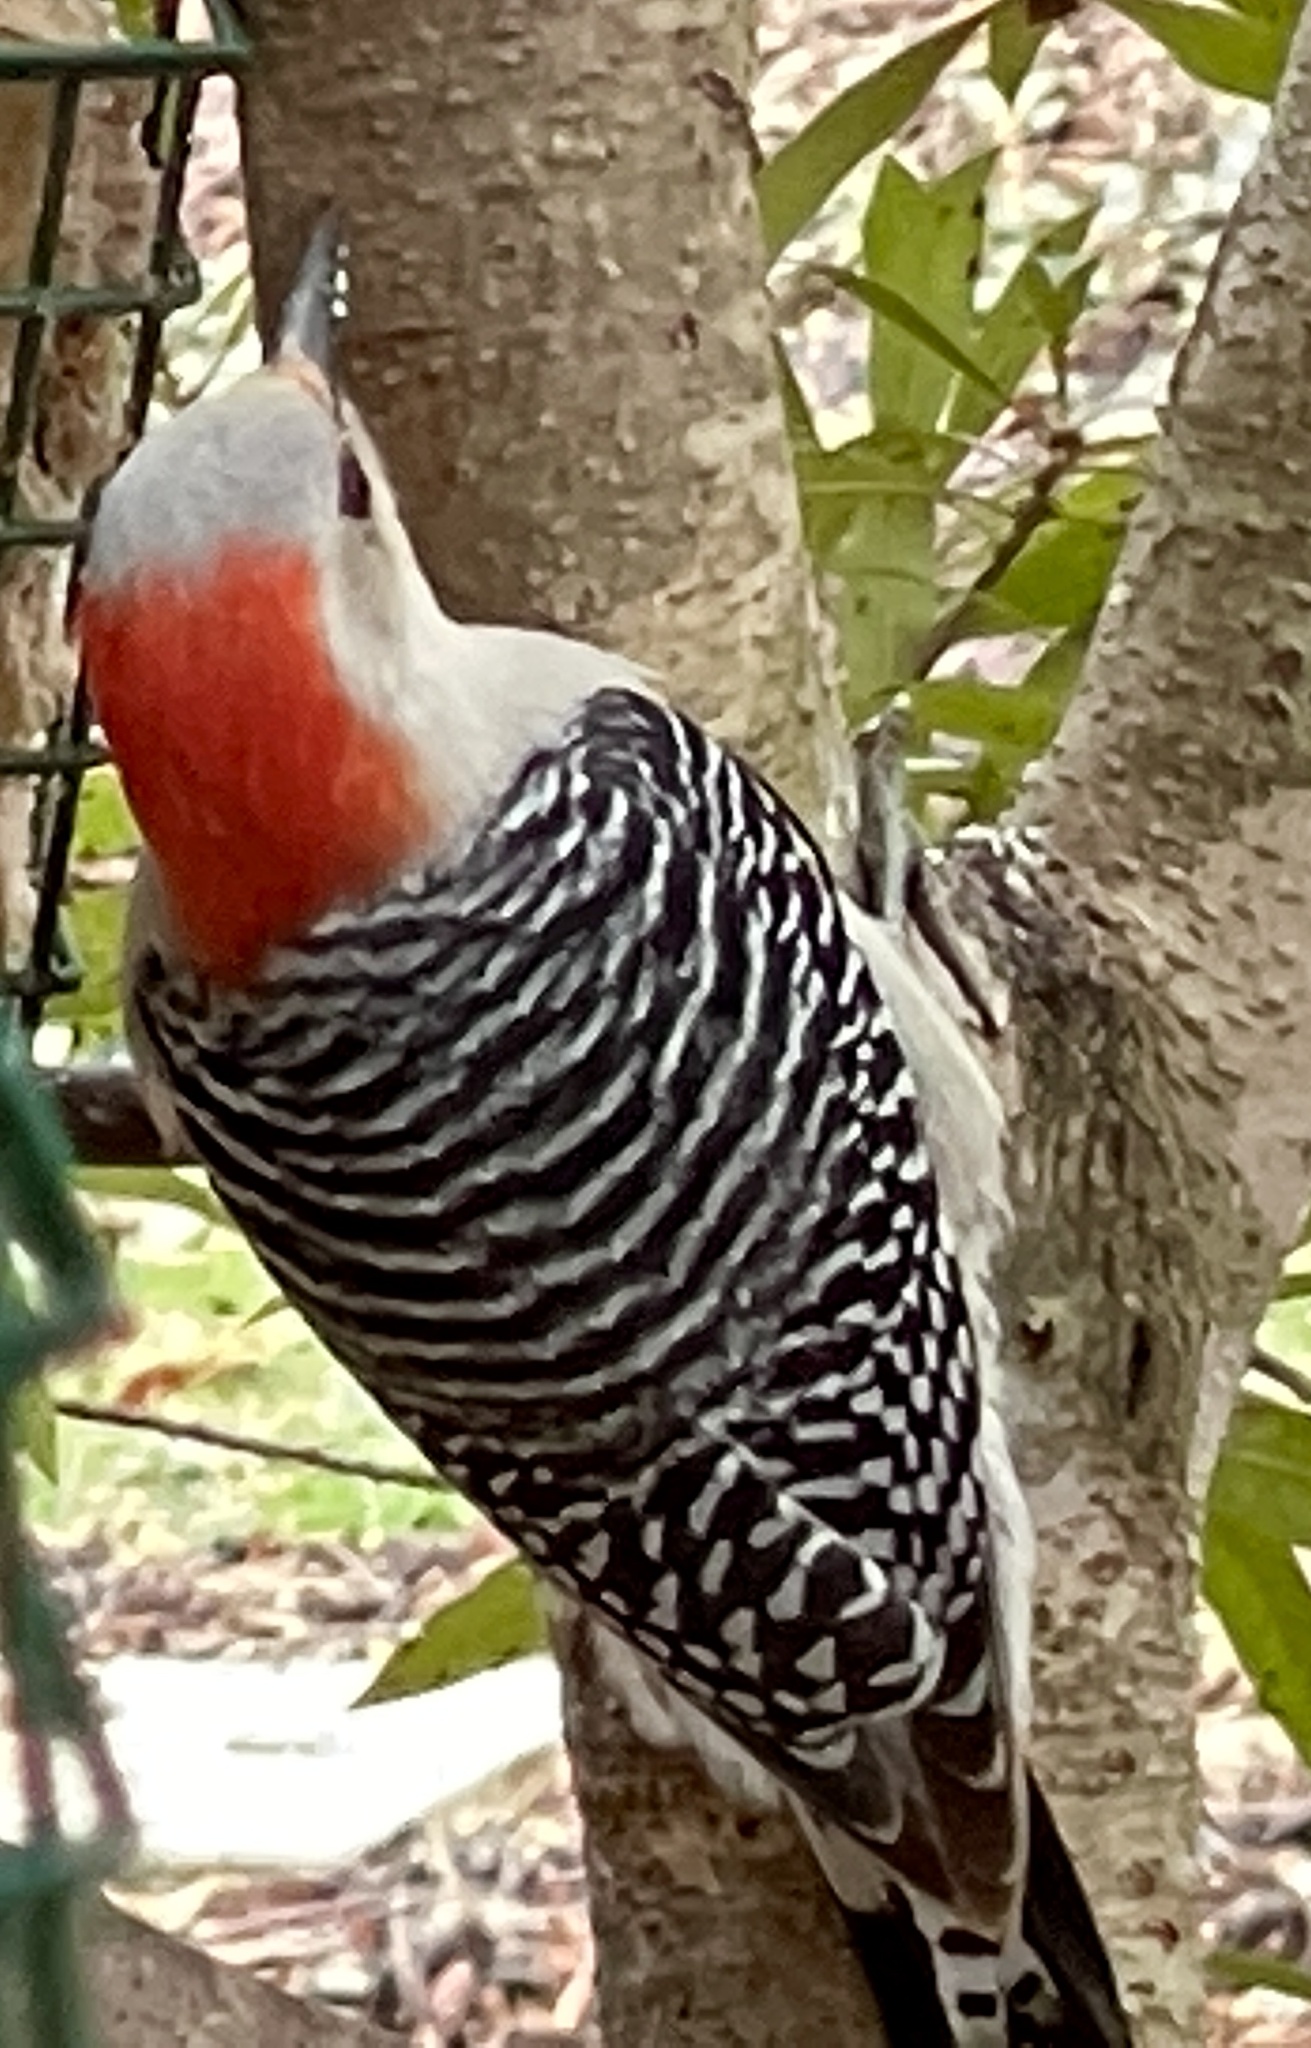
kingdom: Animalia
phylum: Chordata
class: Aves
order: Piciformes
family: Picidae
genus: Melanerpes
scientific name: Melanerpes carolinus
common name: Red-bellied woodpecker
